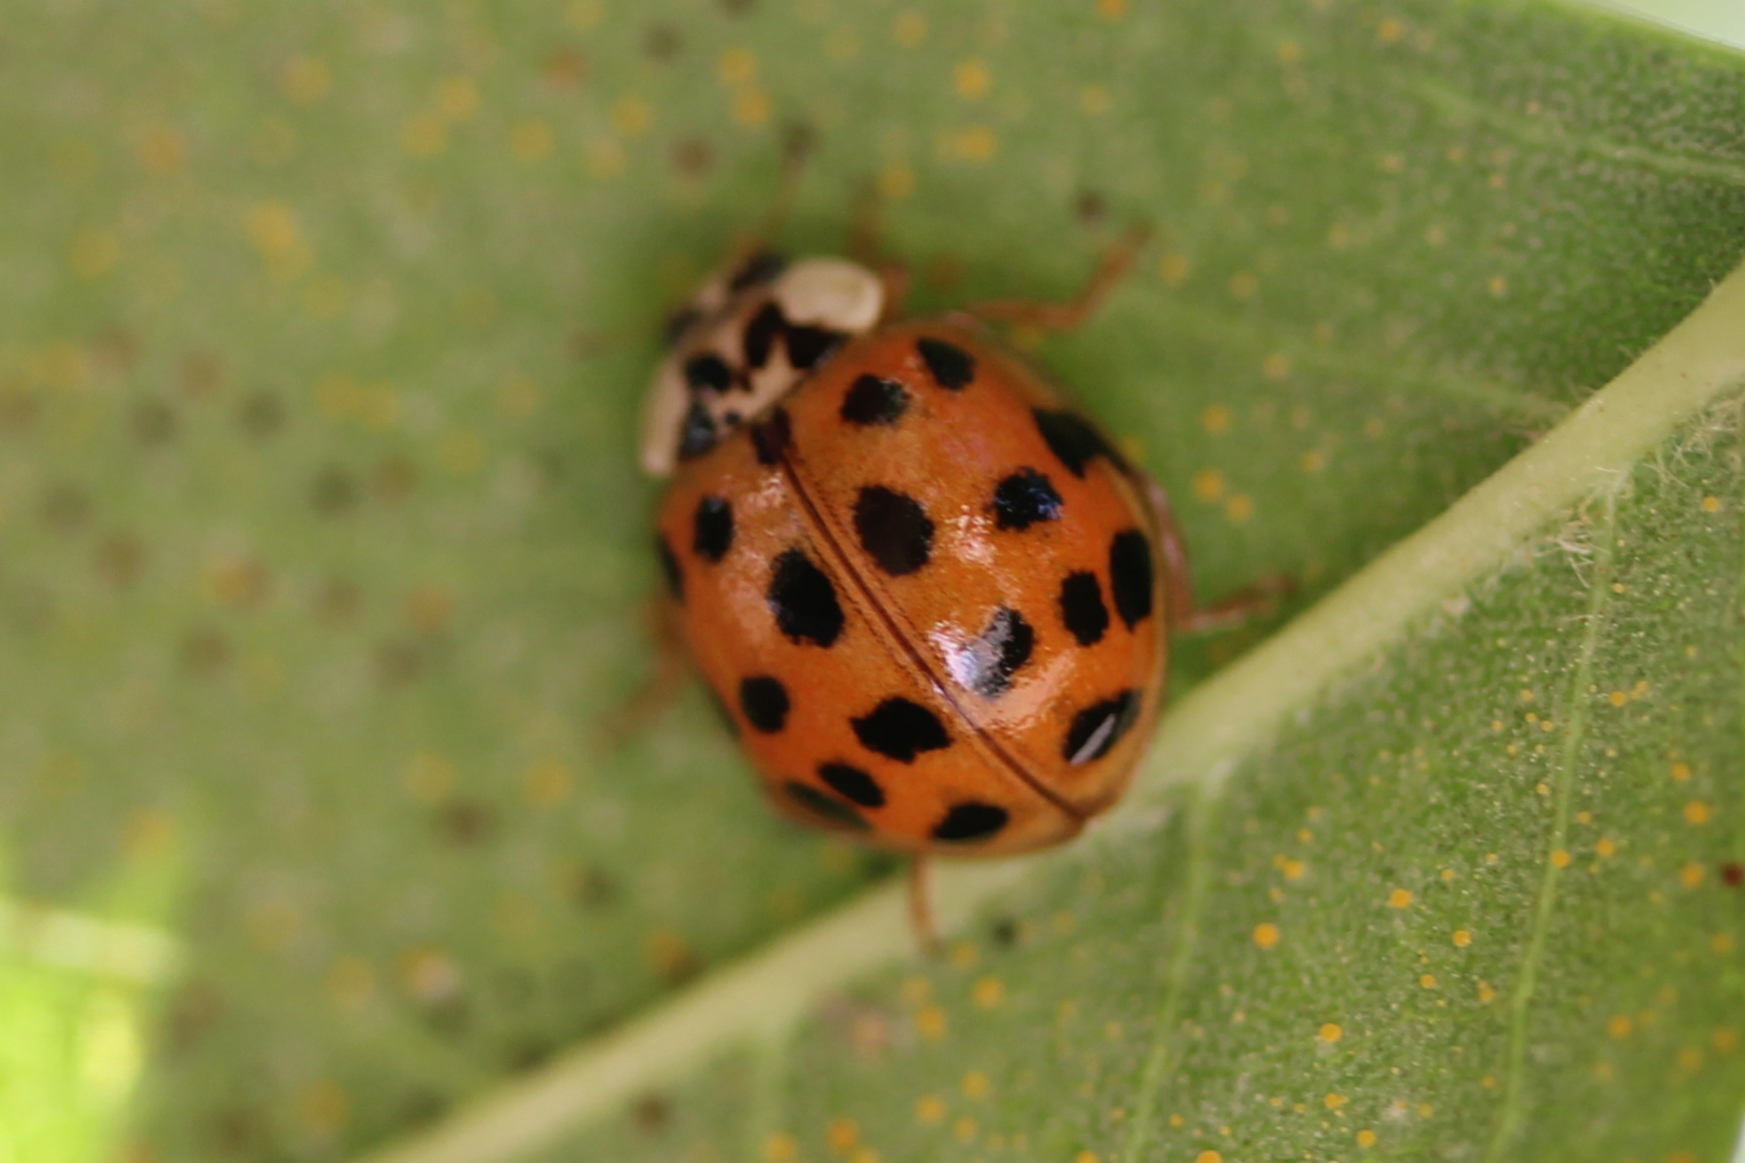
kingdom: Animalia
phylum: Arthropoda
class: Insecta
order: Coleoptera
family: Coccinellidae
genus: Harmonia
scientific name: Harmonia axyridis
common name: Harlequin ladybird
